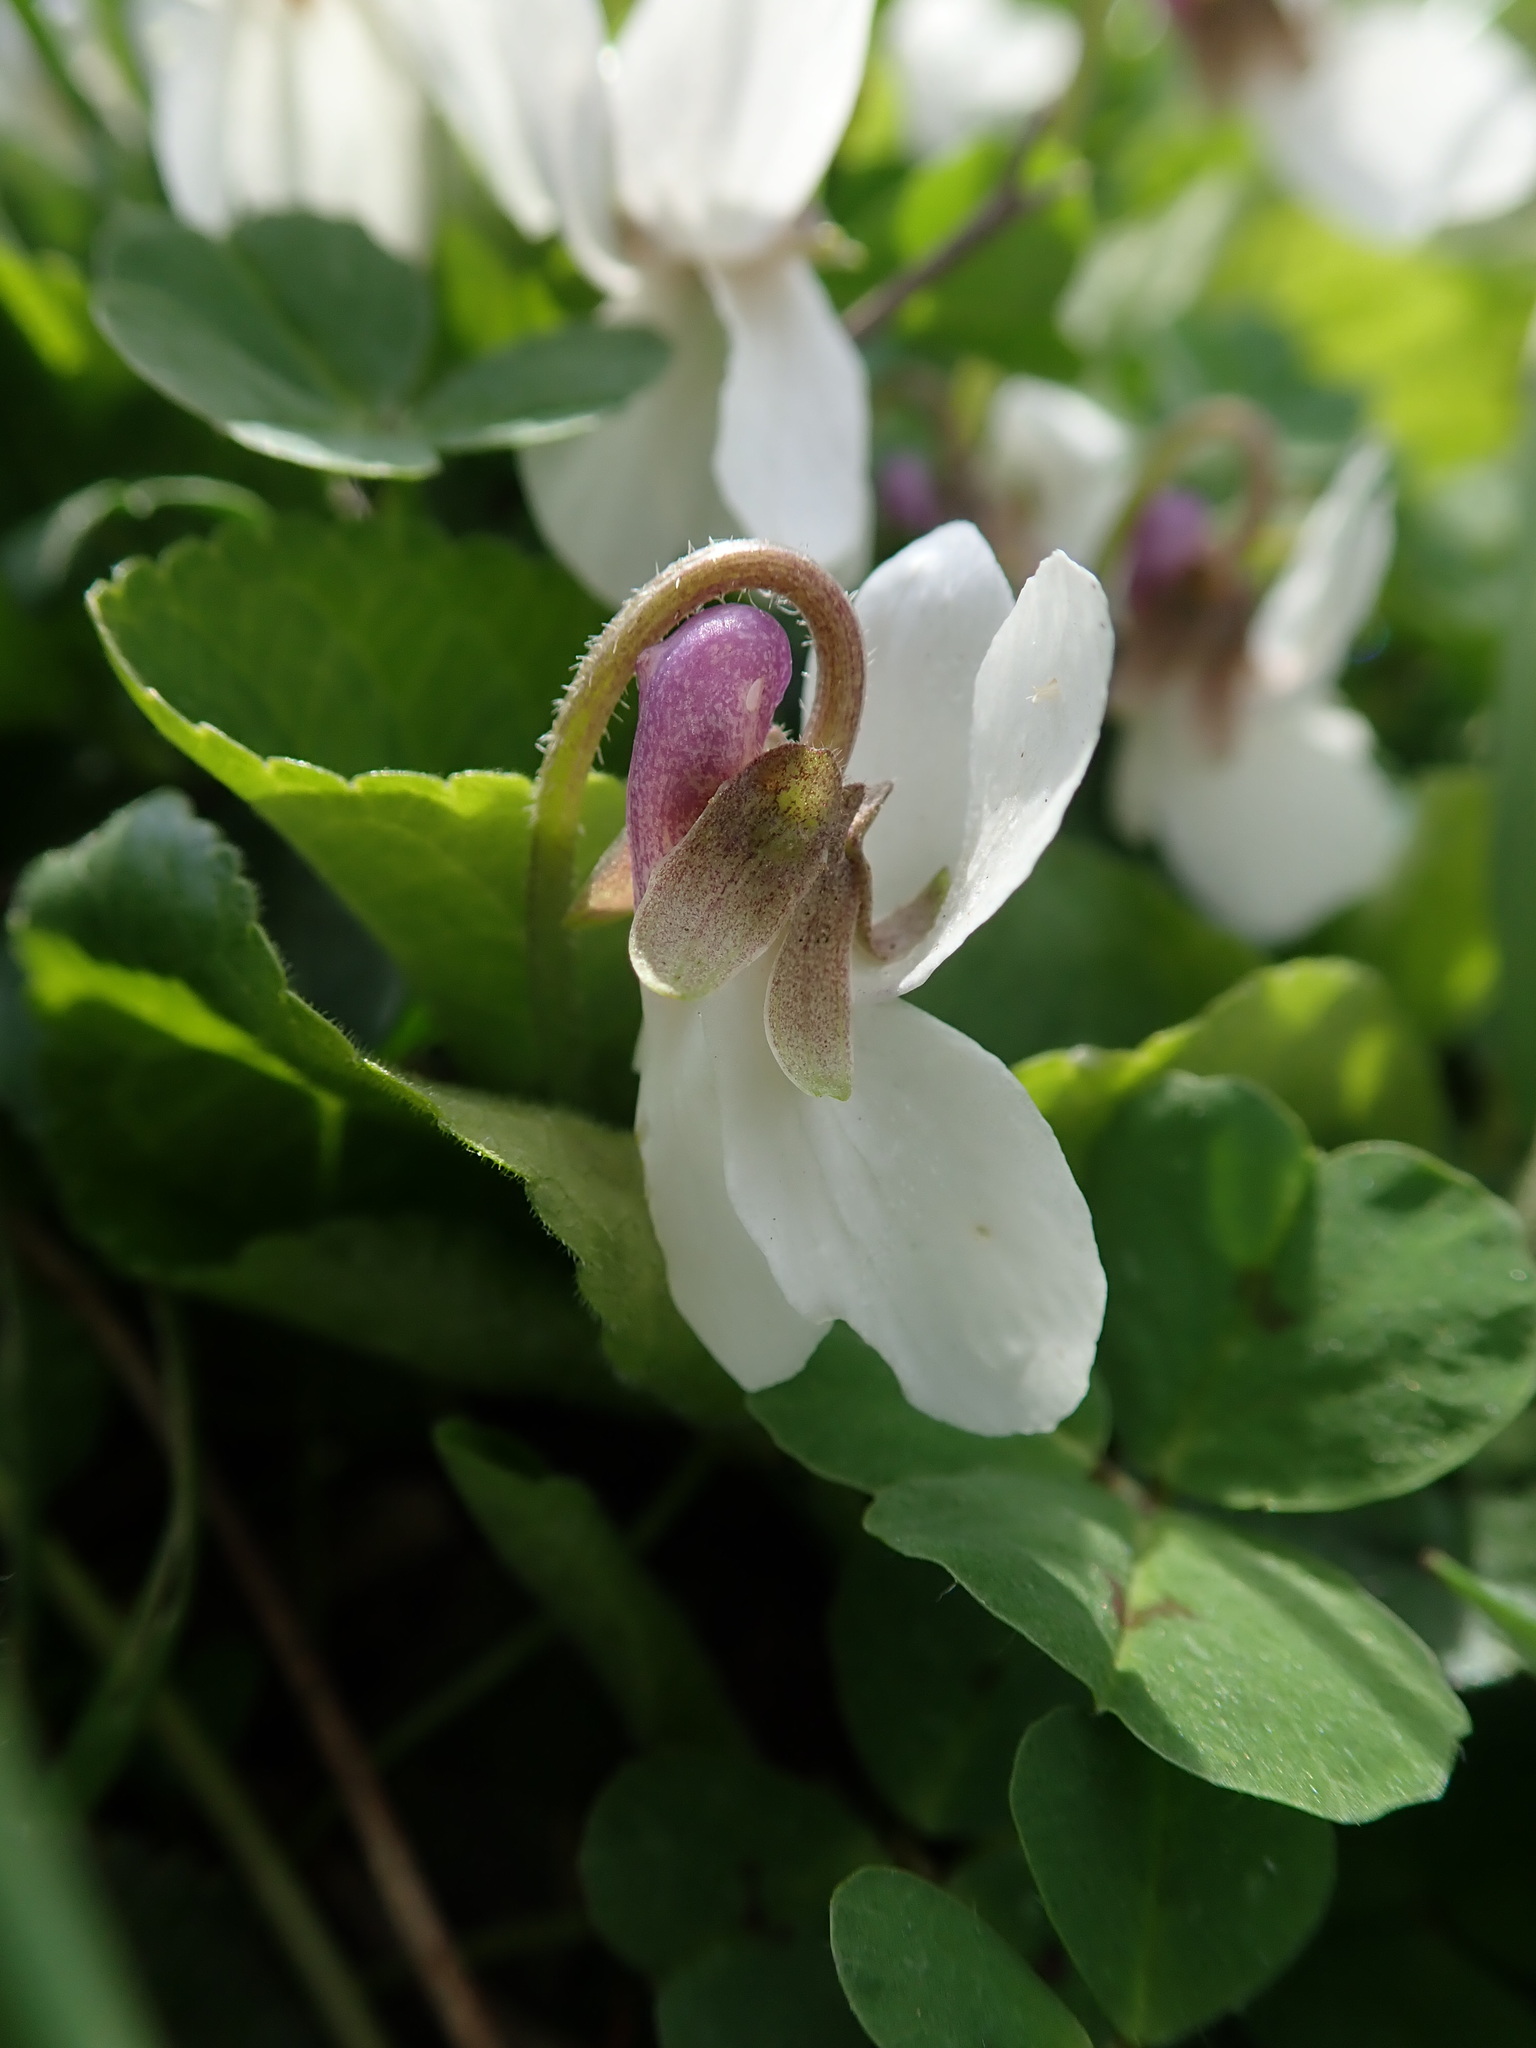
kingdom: Plantae
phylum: Tracheophyta
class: Magnoliopsida
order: Malpighiales
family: Violaceae
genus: Viola
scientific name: Viola odorata
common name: Sweet violet
